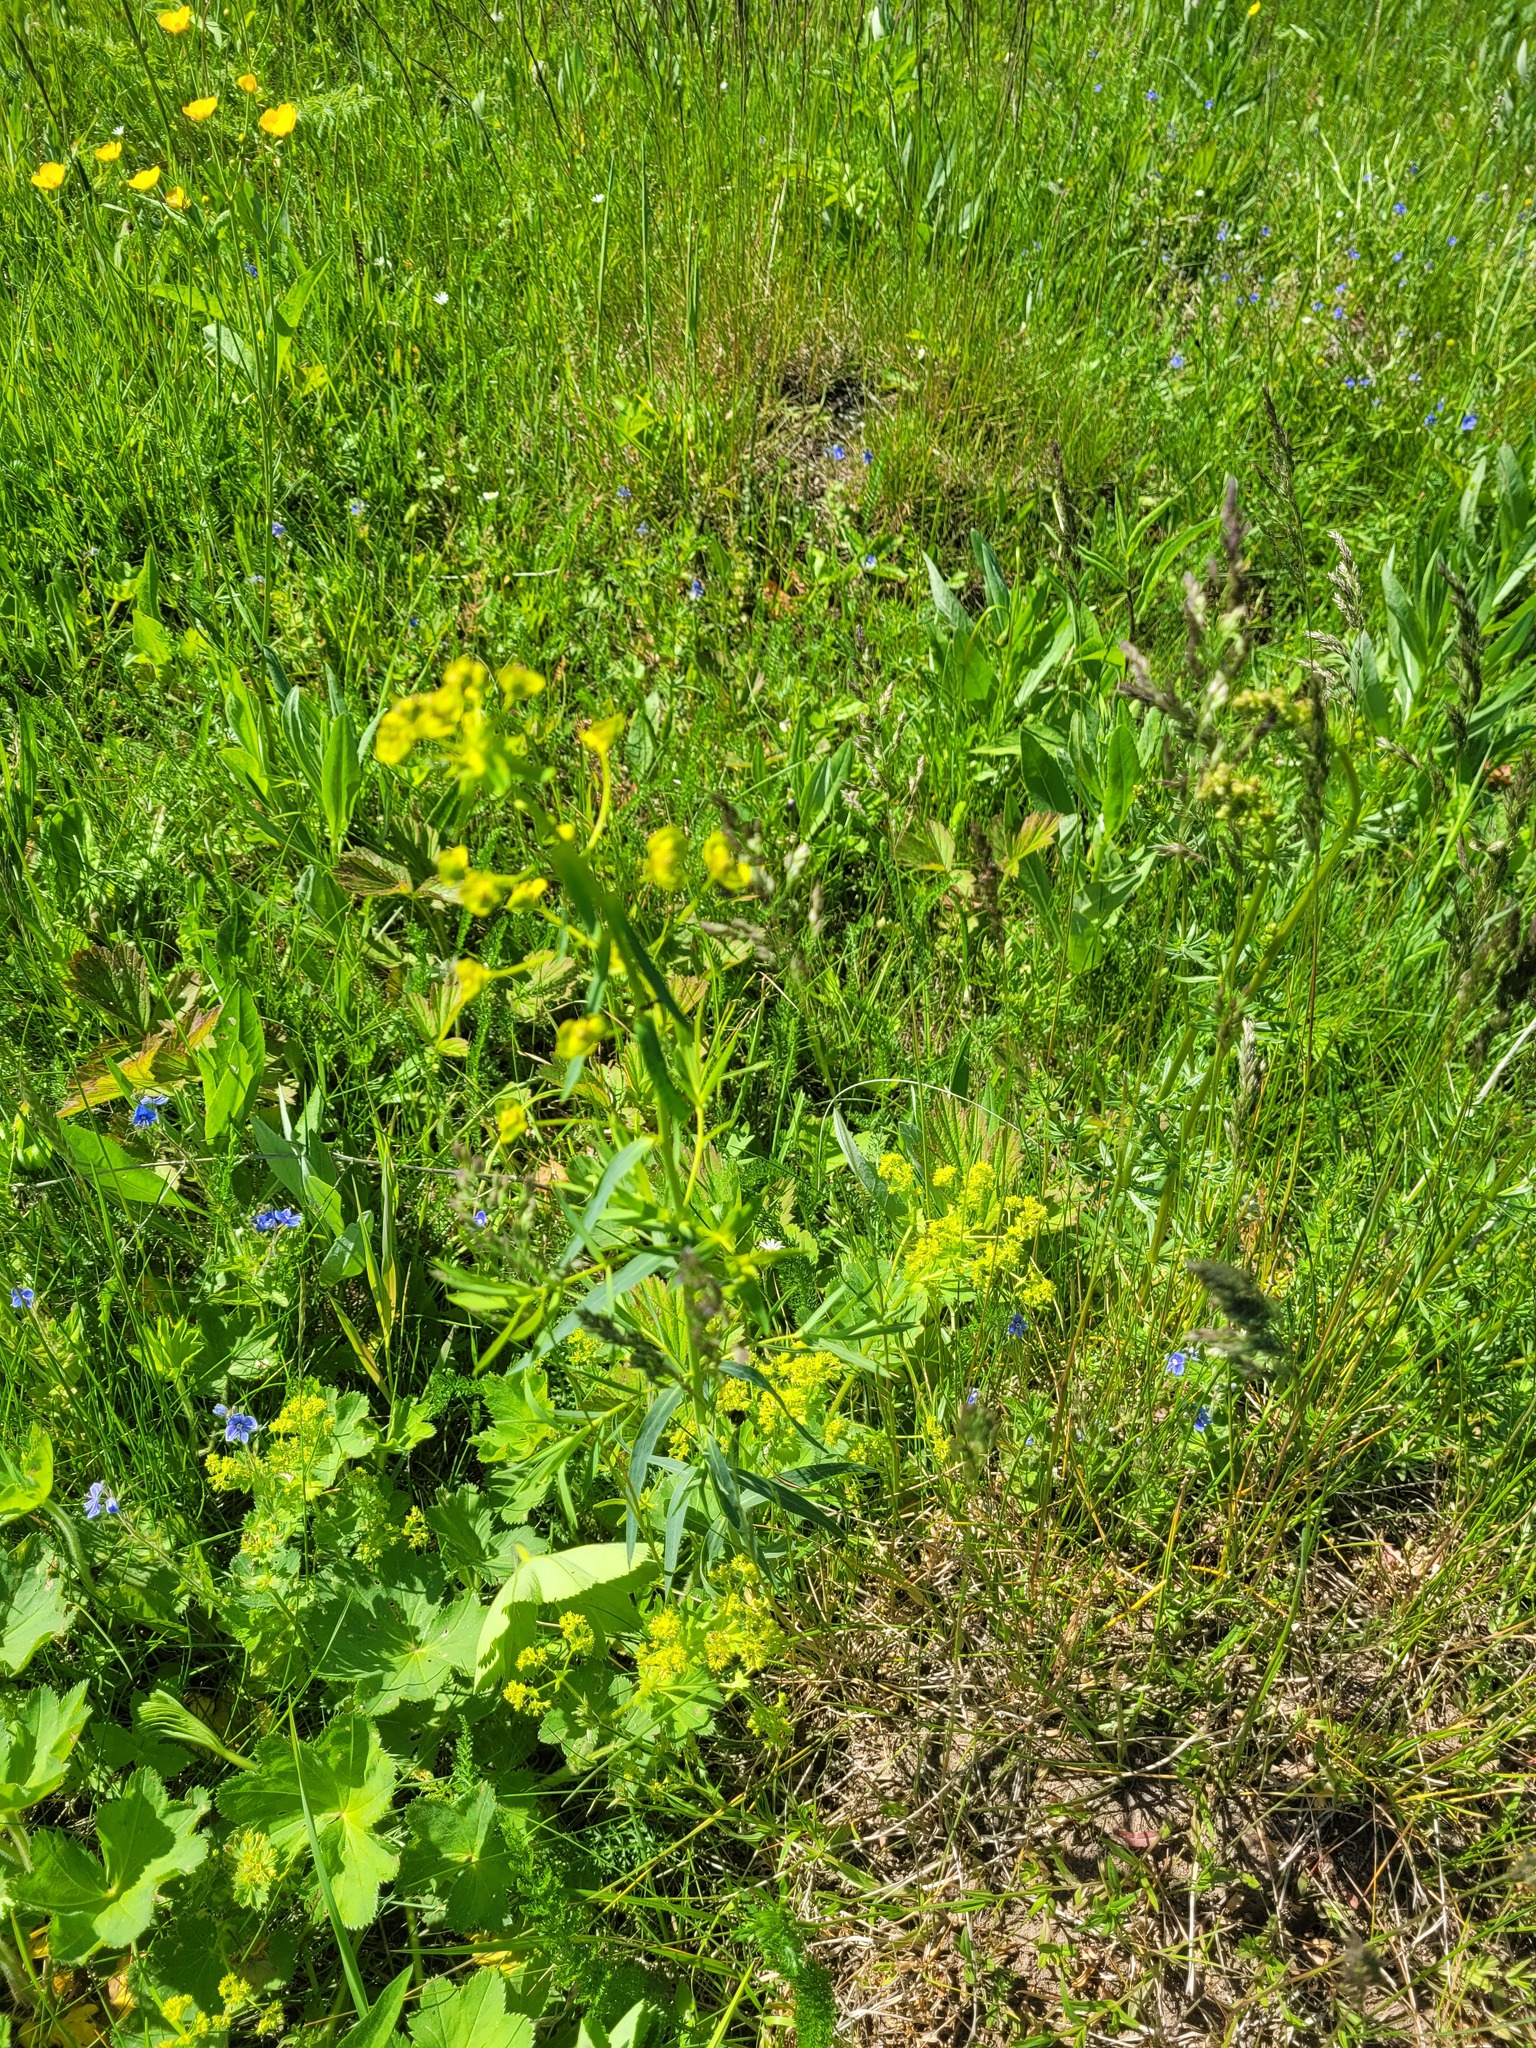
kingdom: Plantae
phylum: Tracheophyta
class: Magnoliopsida
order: Malpighiales
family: Euphorbiaceae
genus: Euphorbia
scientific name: Euphorbia virgata
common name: Leafy spurge
